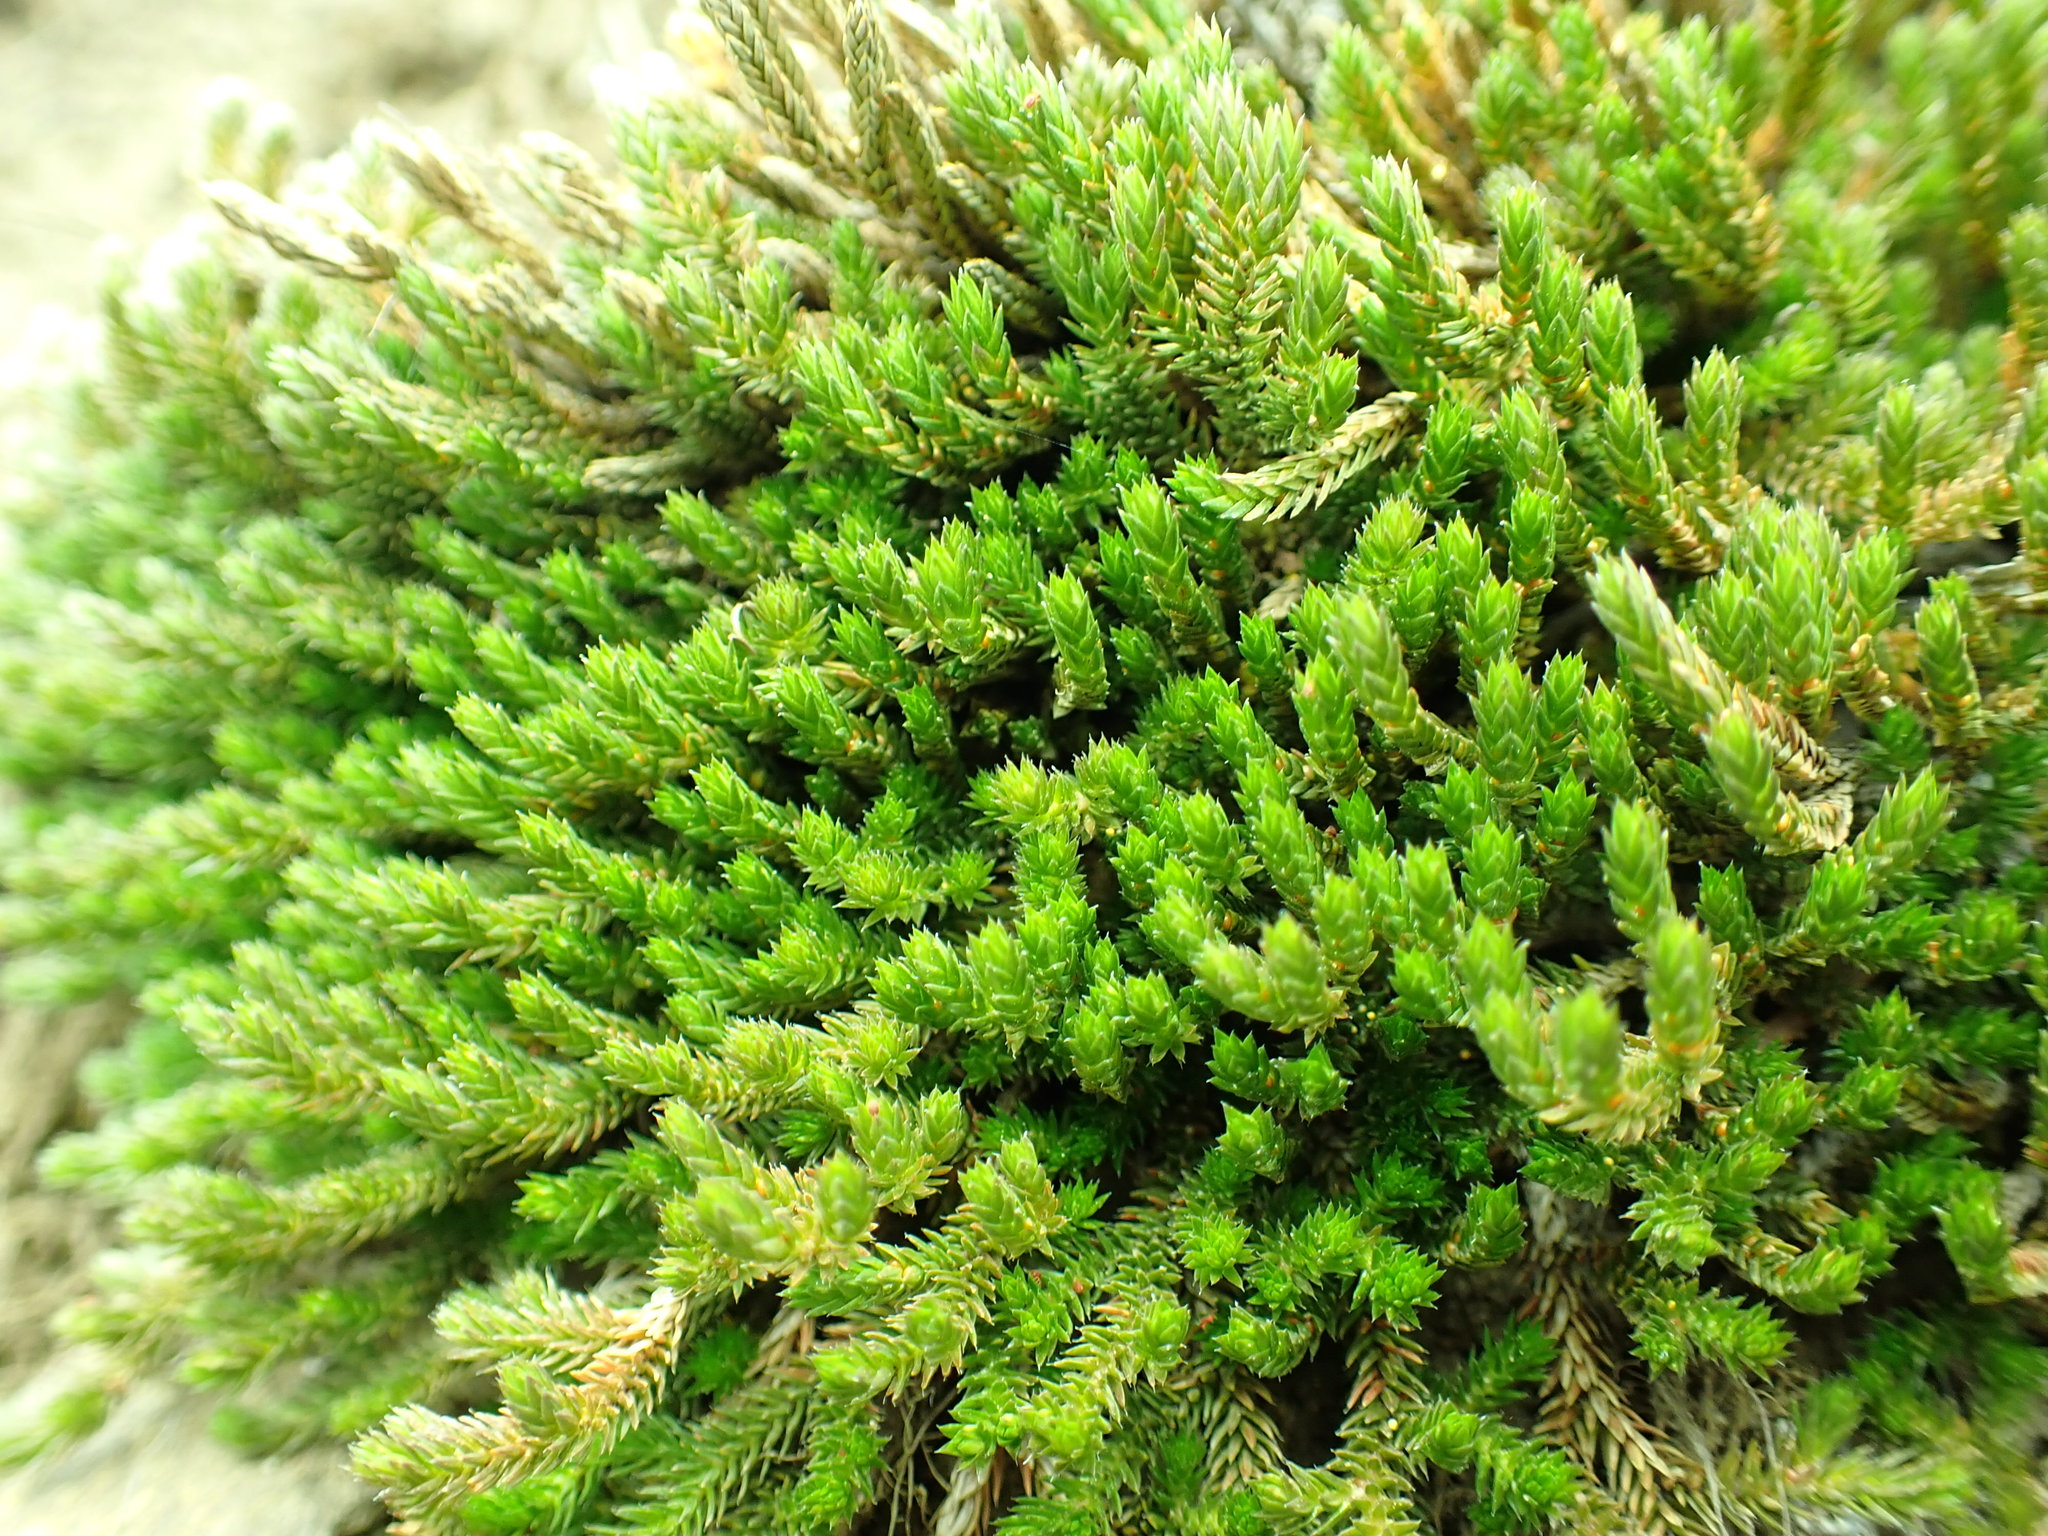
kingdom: Plantae
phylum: Tracheophyta
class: Lycopodiopsida
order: Selaginellales
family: Selaginellaceae
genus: Selaginella
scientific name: Selaginella wallacei
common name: Wallace's selaginella
